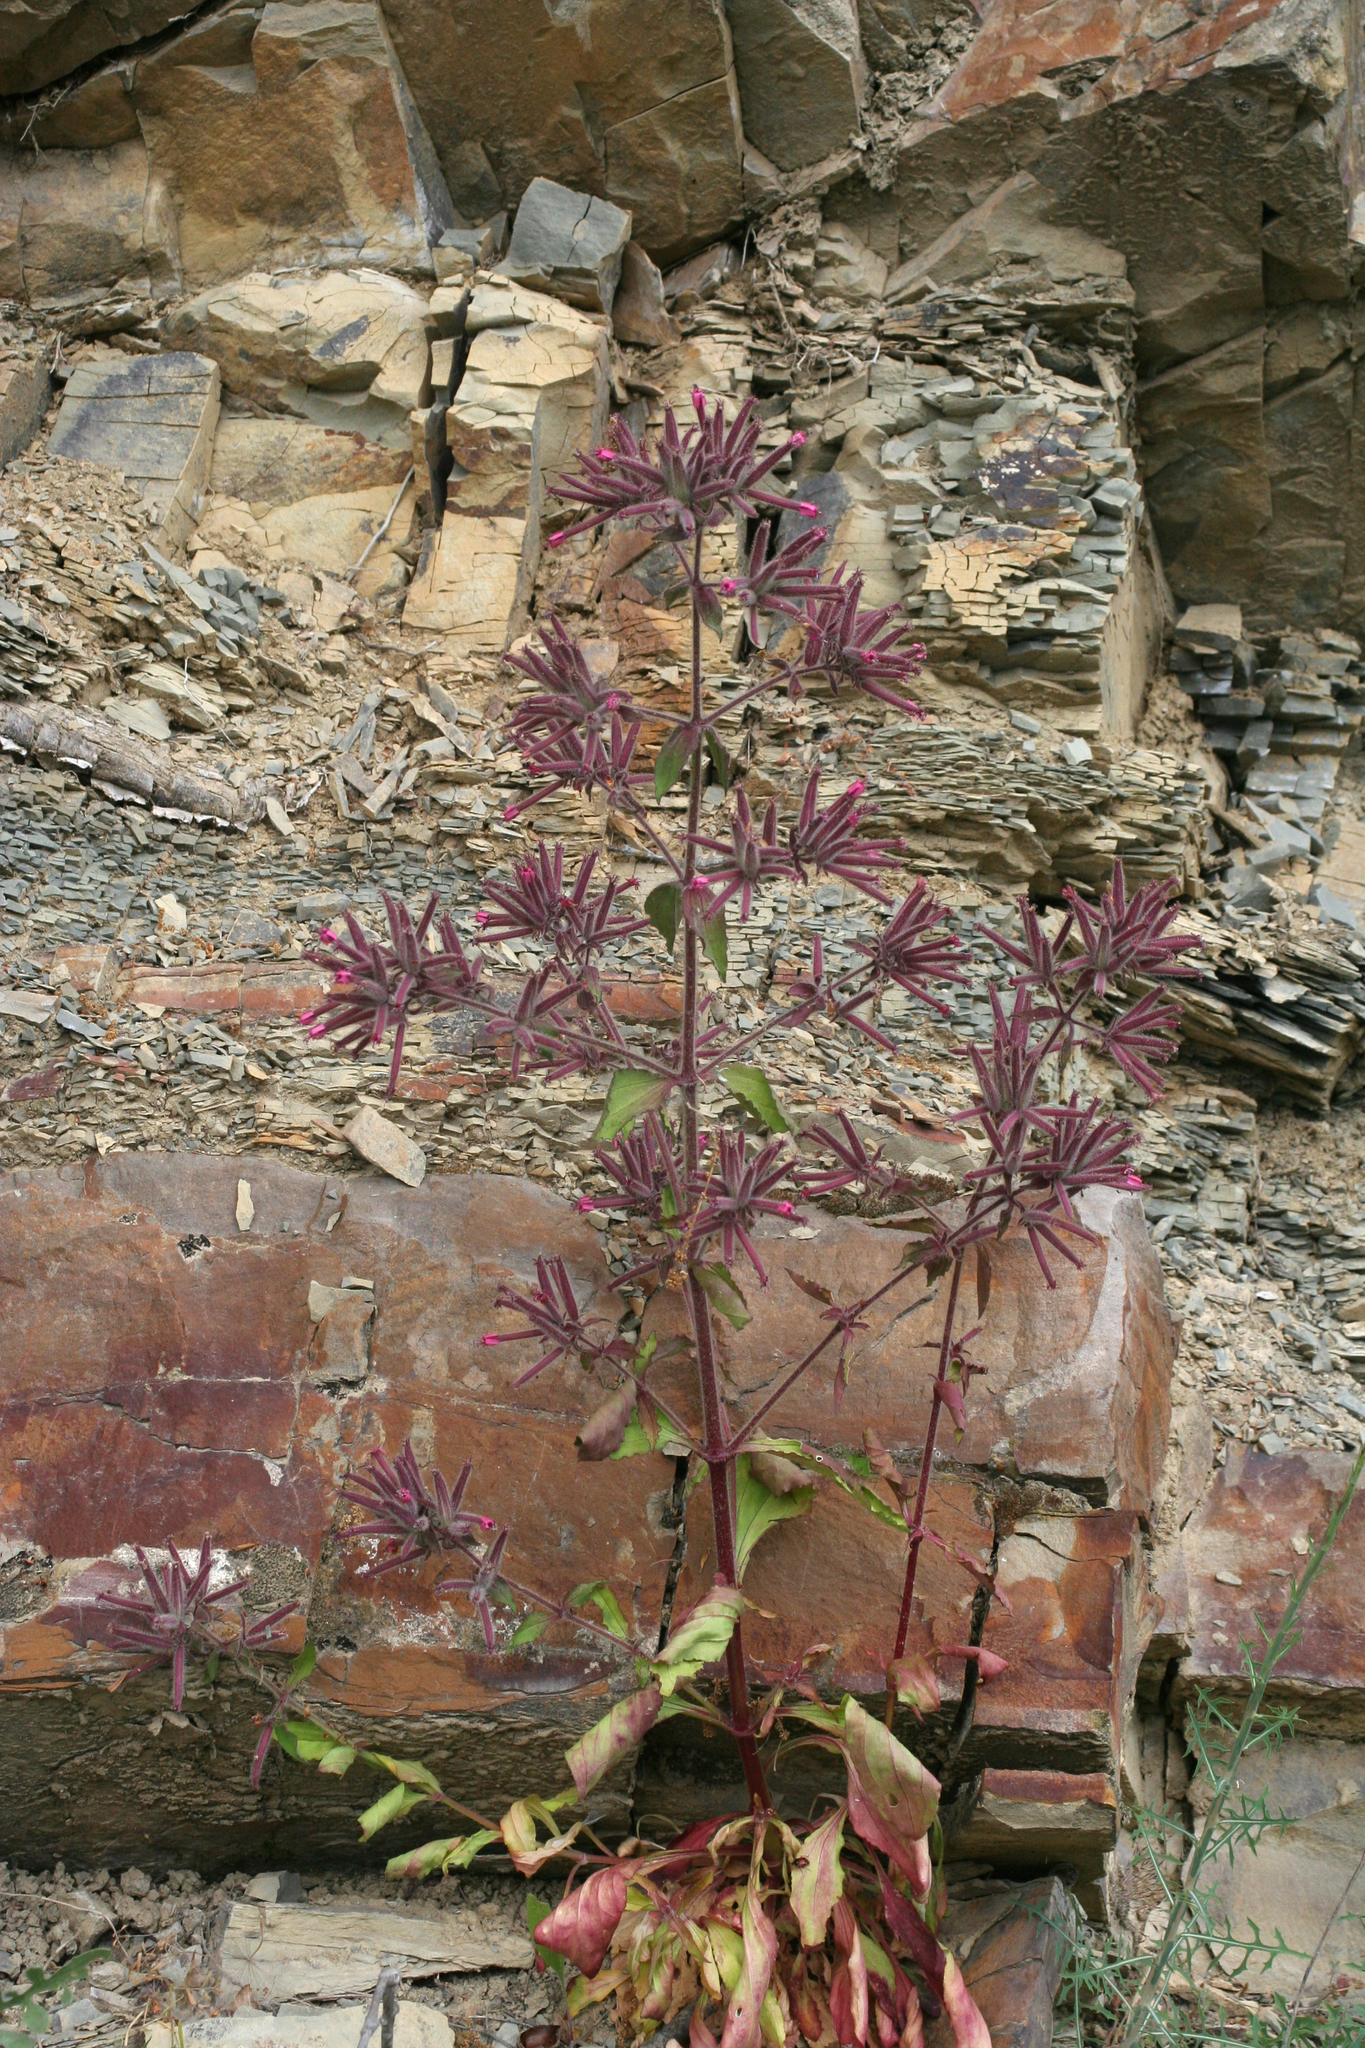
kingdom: Plantae
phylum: Tracheophyta
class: Magnoliopsida
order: Caryophyllales
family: Caryophyllaceae
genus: Saponaria
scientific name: Saponaria glutinosa
